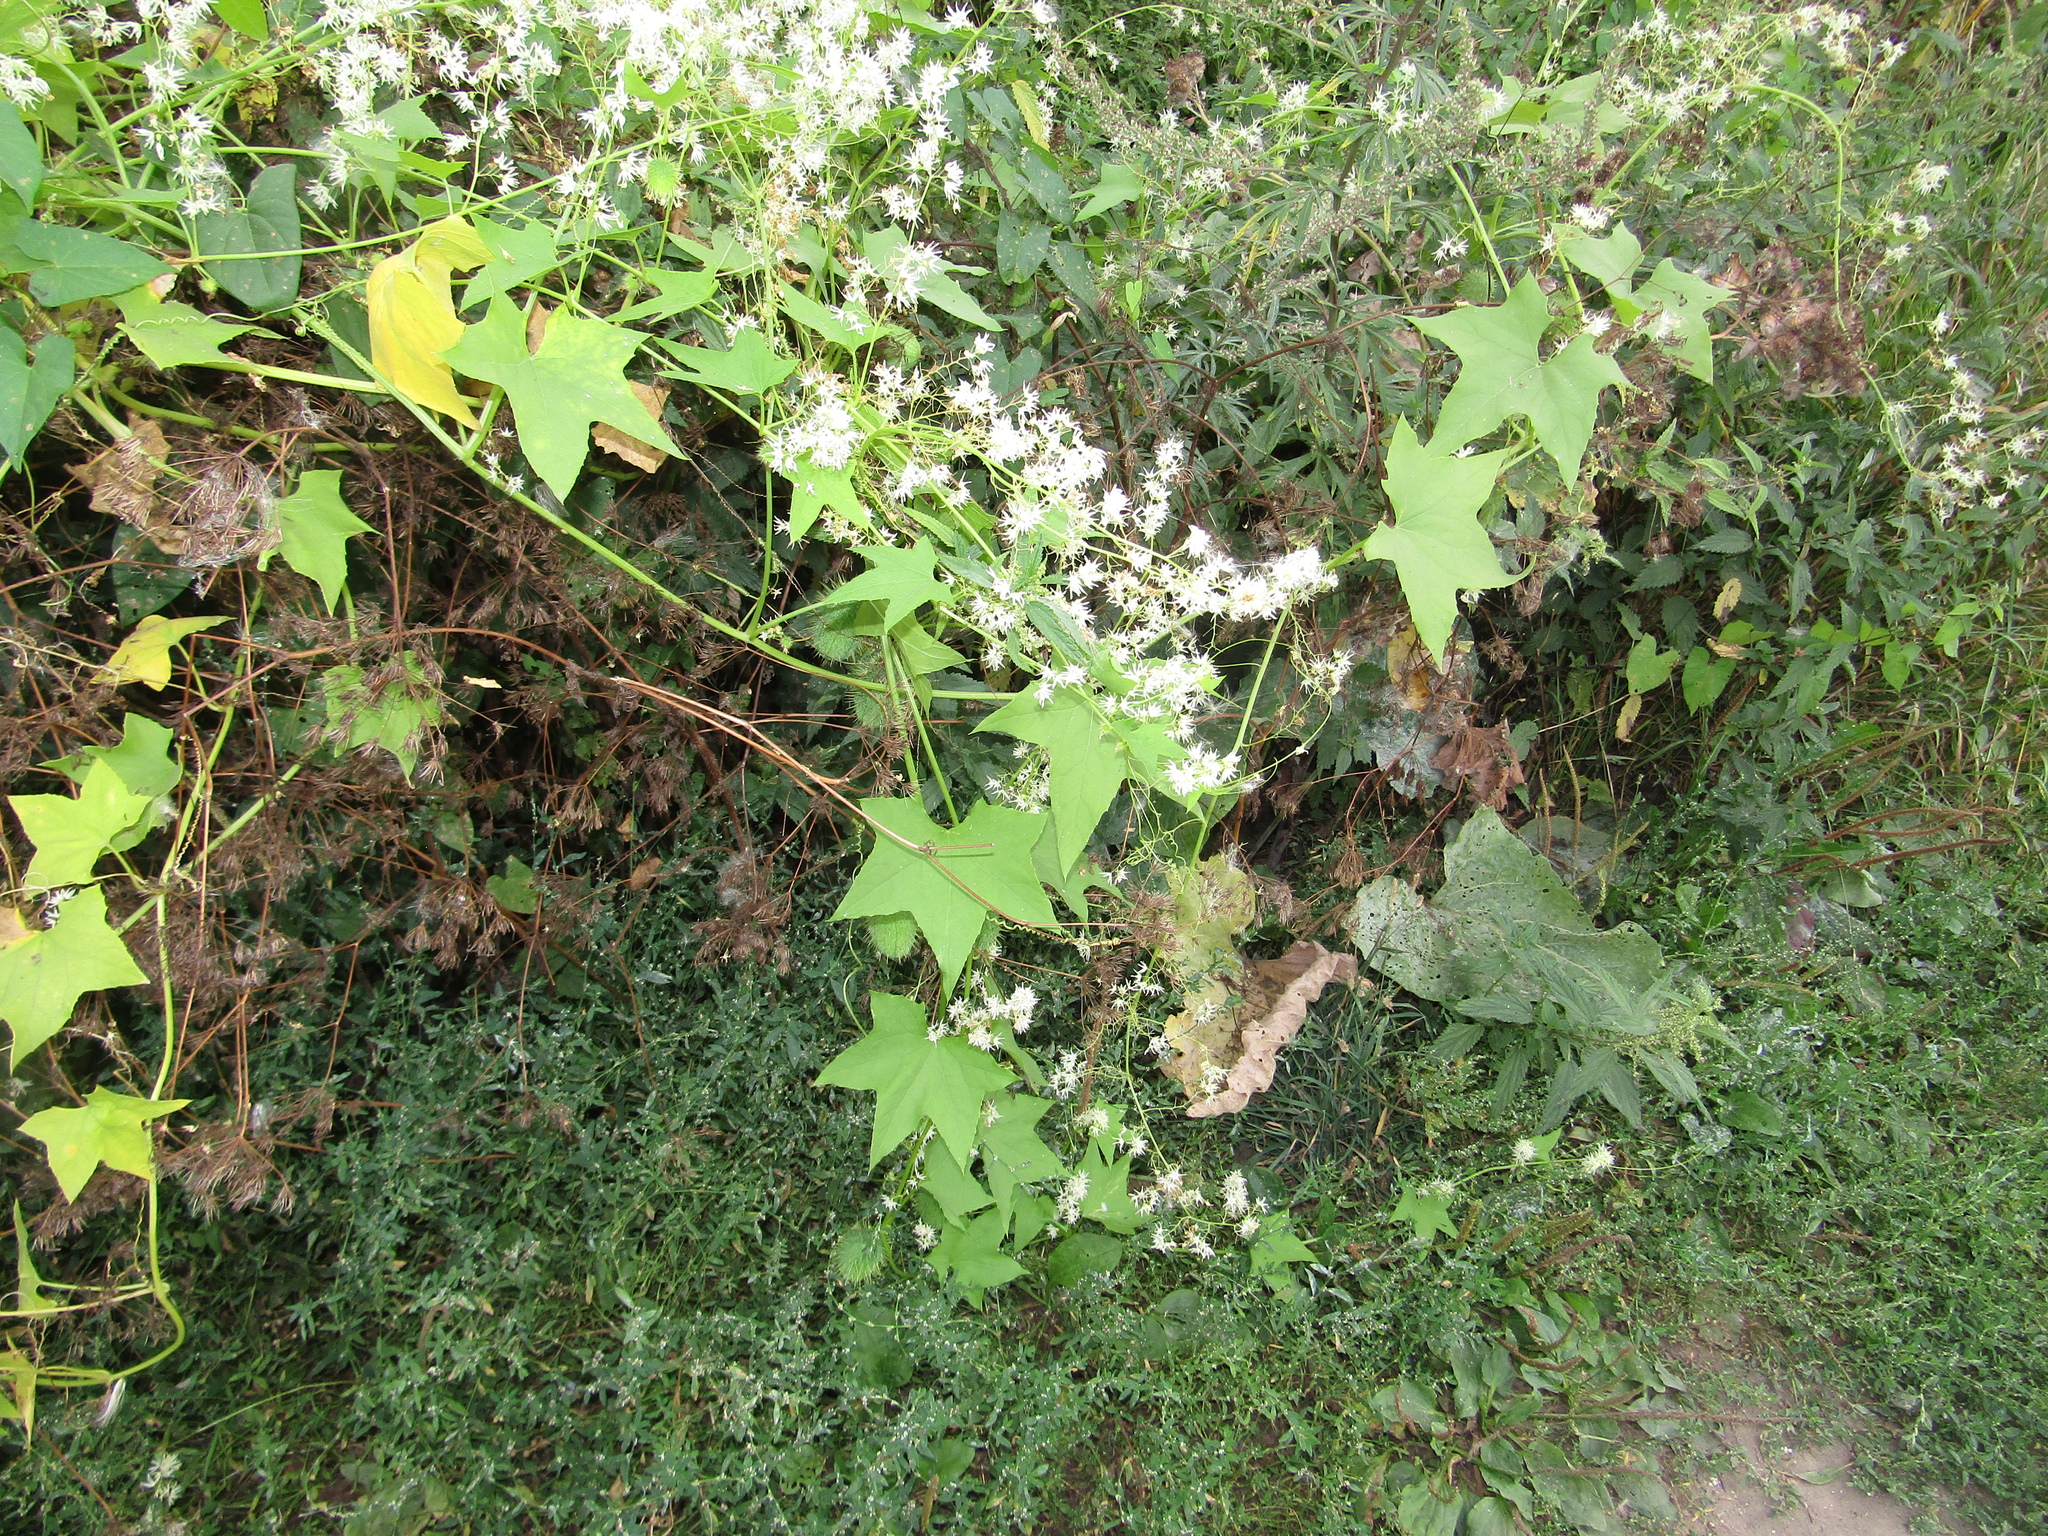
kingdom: Plantae
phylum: Tracheophyta
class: Magnoliopsida
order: Cucurbitales
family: Cucurbitaceae
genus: Echinocystis
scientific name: Echinocystis lobata
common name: Wild cucumber
